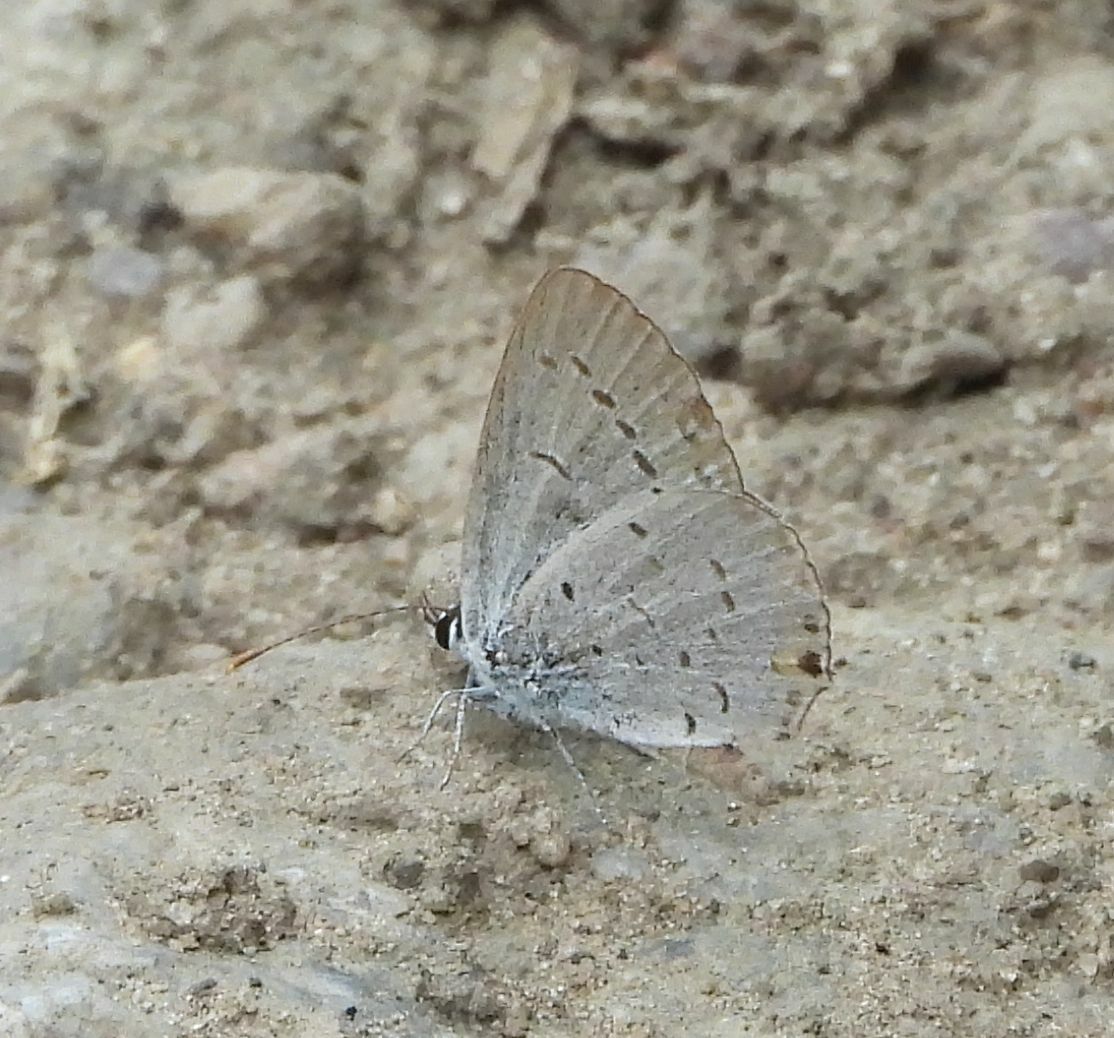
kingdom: Animalia
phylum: Arthropoda
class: Insecta
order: Lepidoptera
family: Lycaenidae
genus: Elkalyce
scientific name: Elkalyce comyntas
